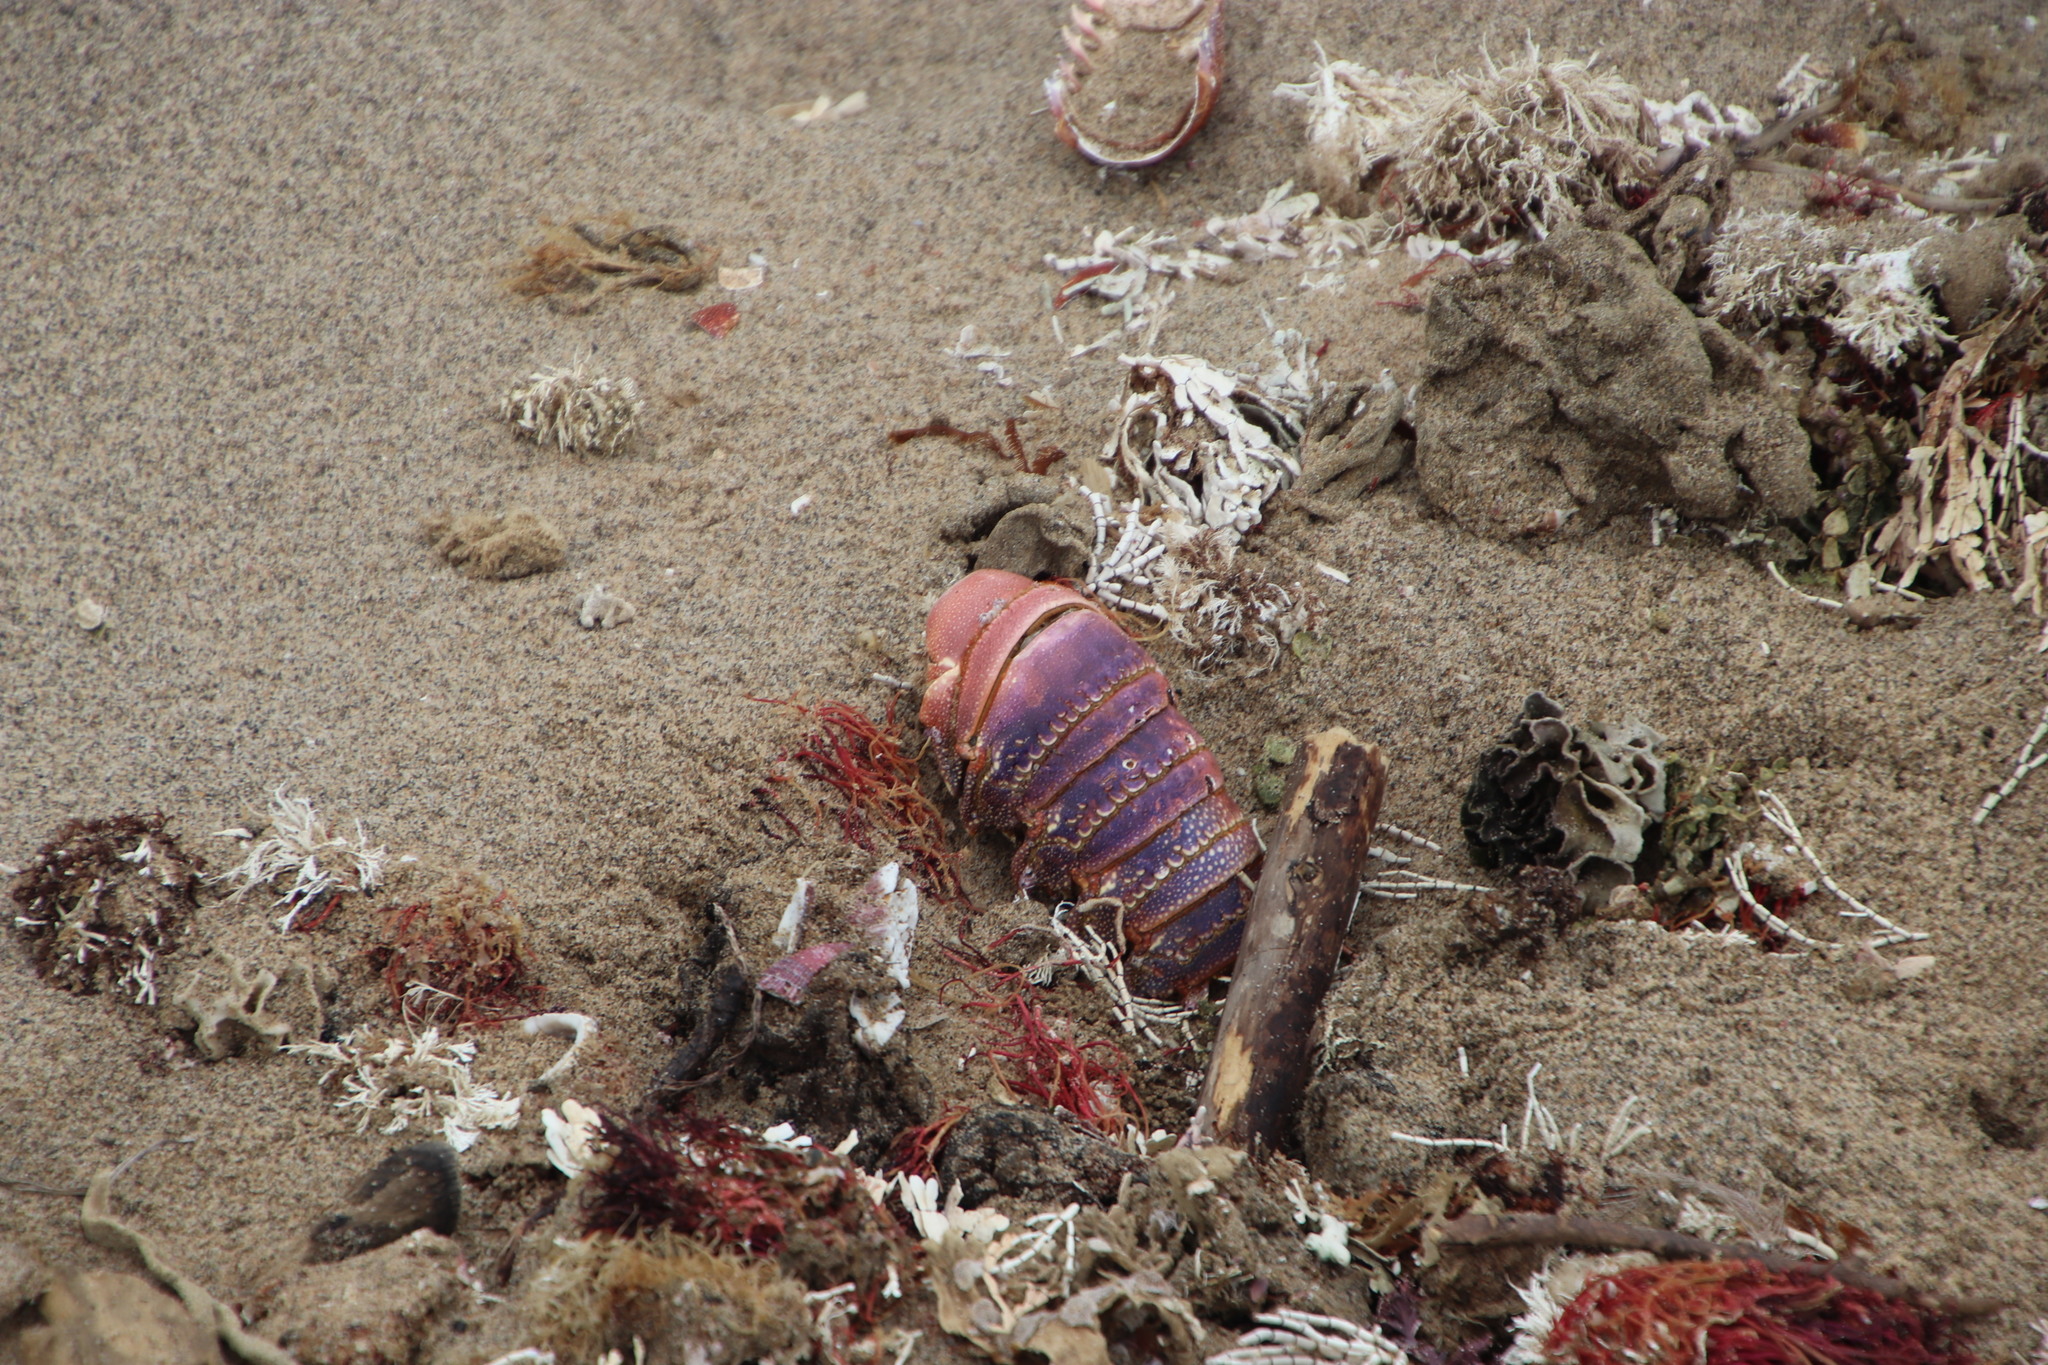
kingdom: Animalia
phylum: Arthropoda
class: Malacostraca
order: Decapoda
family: Palinuridae
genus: Panulirus
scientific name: Panulirus homarus
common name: Scalloped spiny lobster
